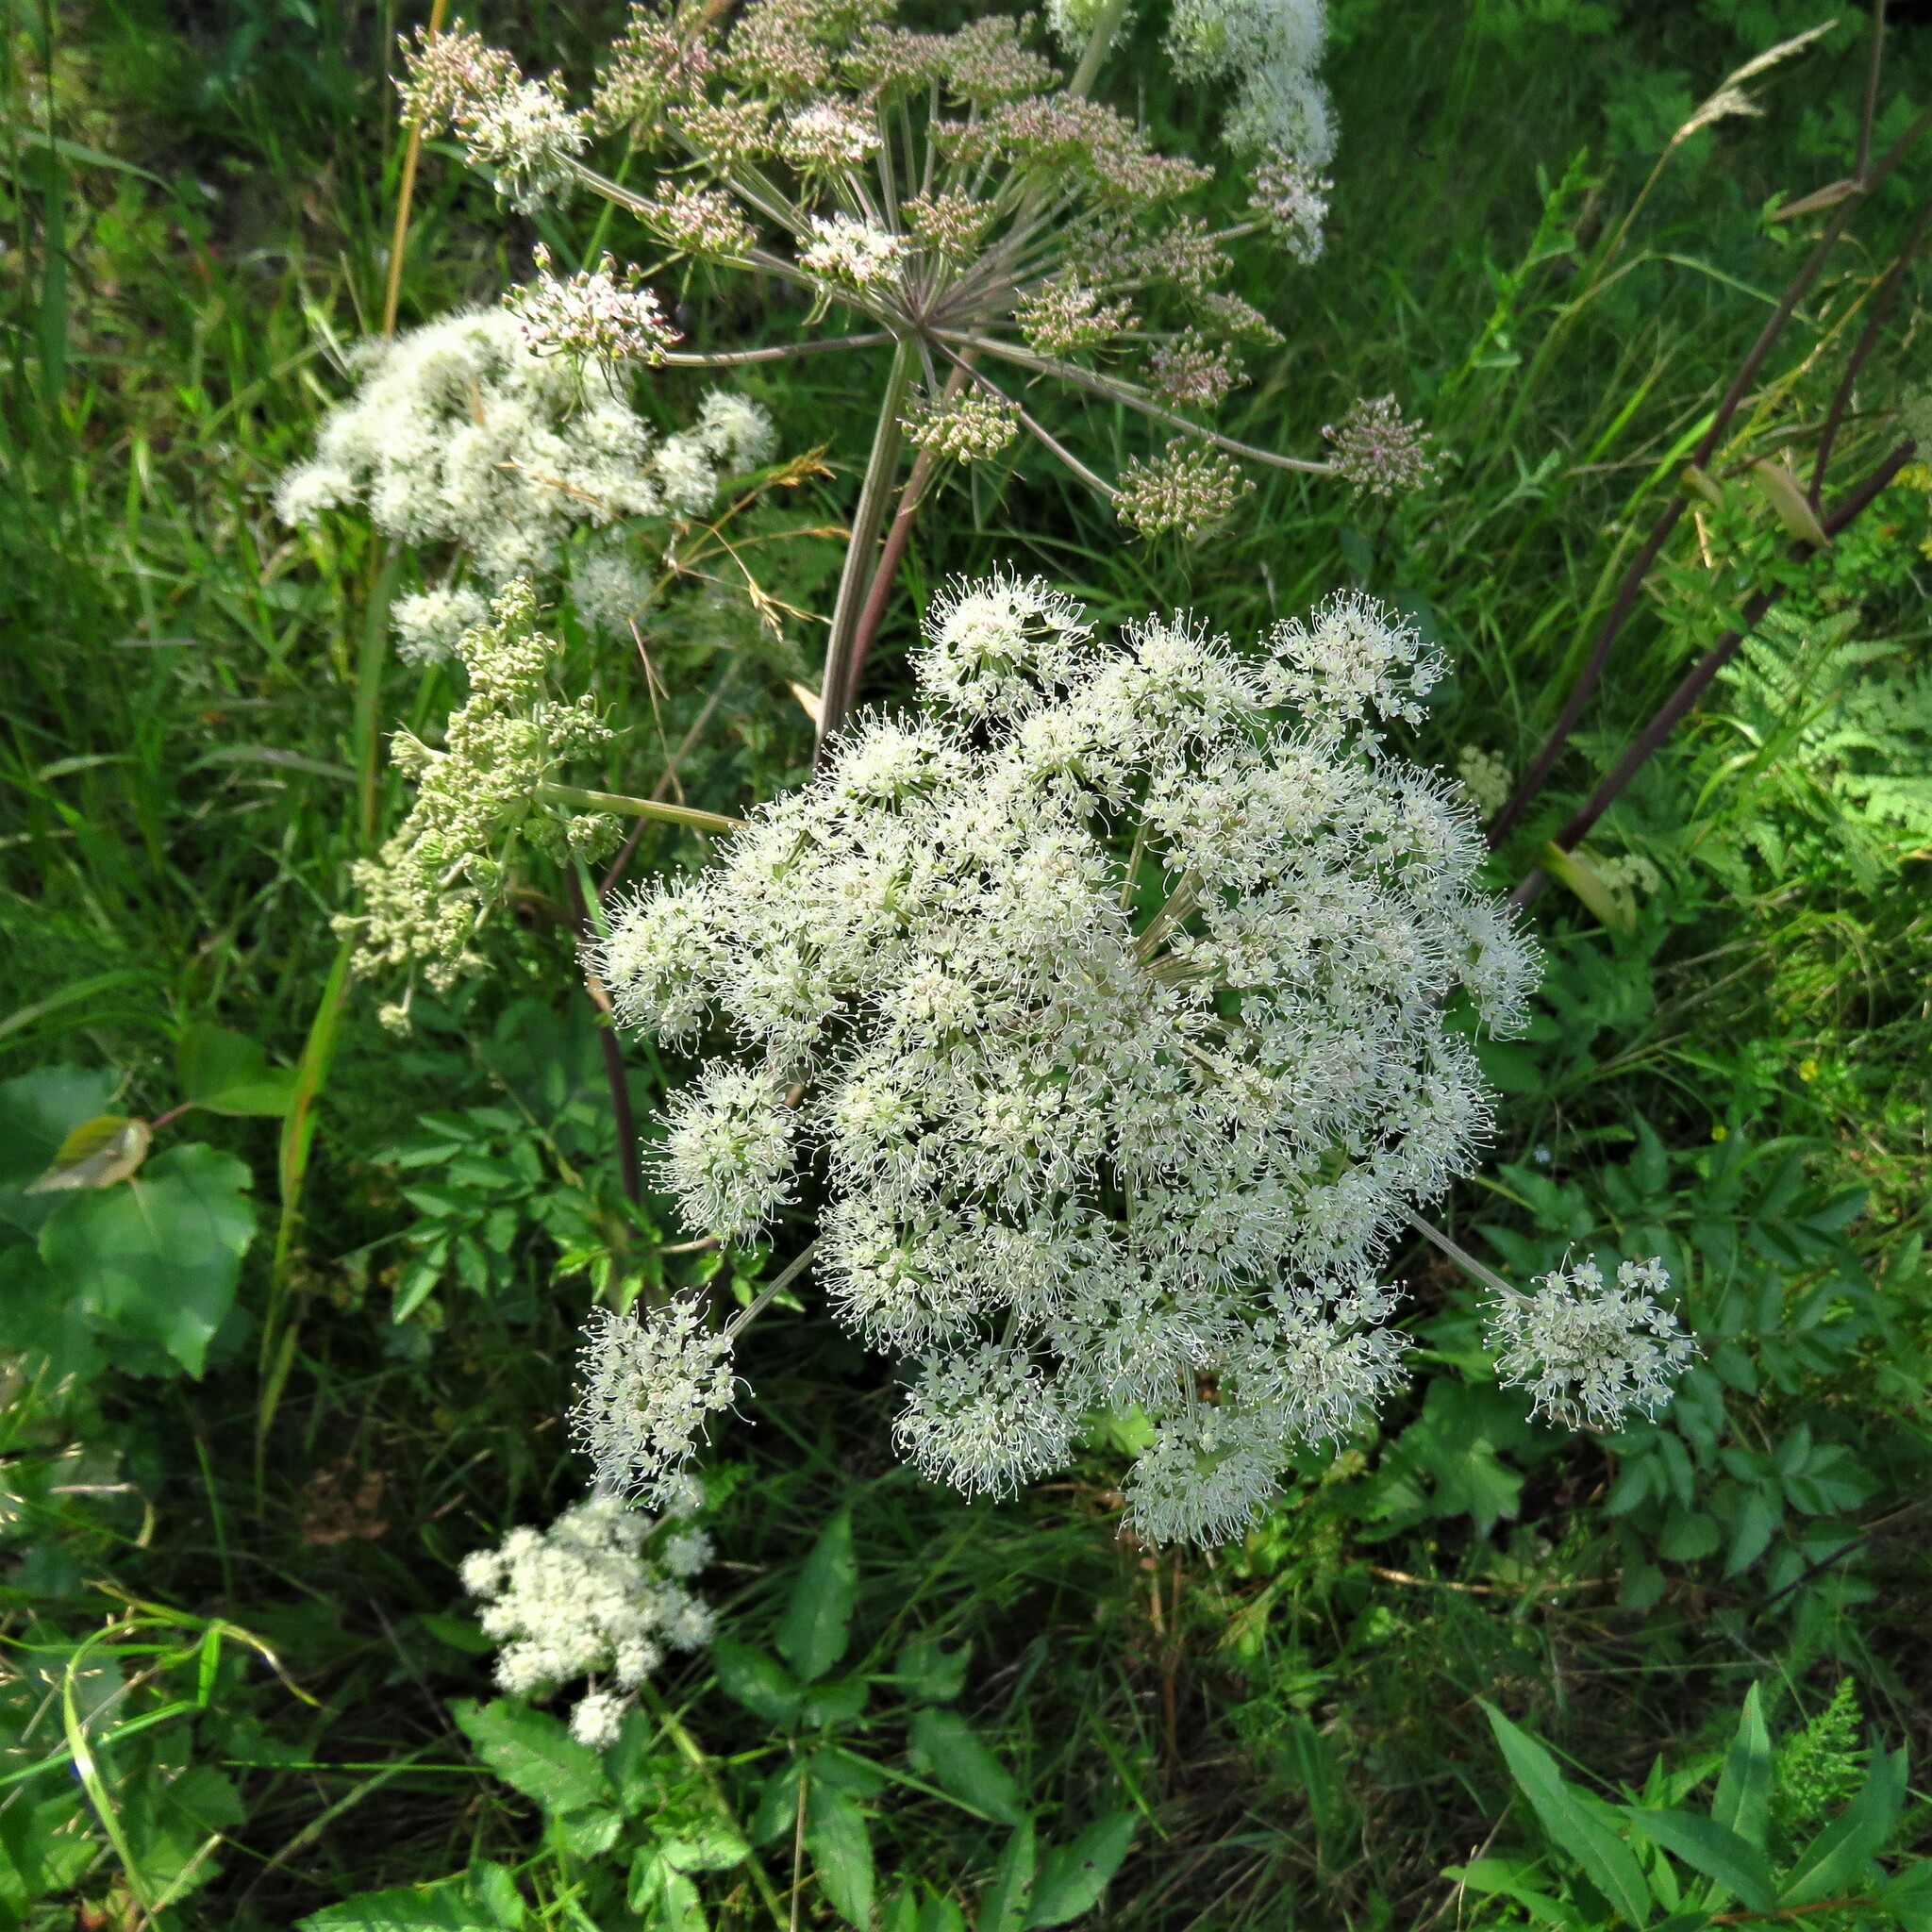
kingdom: Plantae
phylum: Tracheophyta
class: Magnoliopsida
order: Apiales
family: Apiaceae
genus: Angelica
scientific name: Angelica sylvestris
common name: Wild angelica
